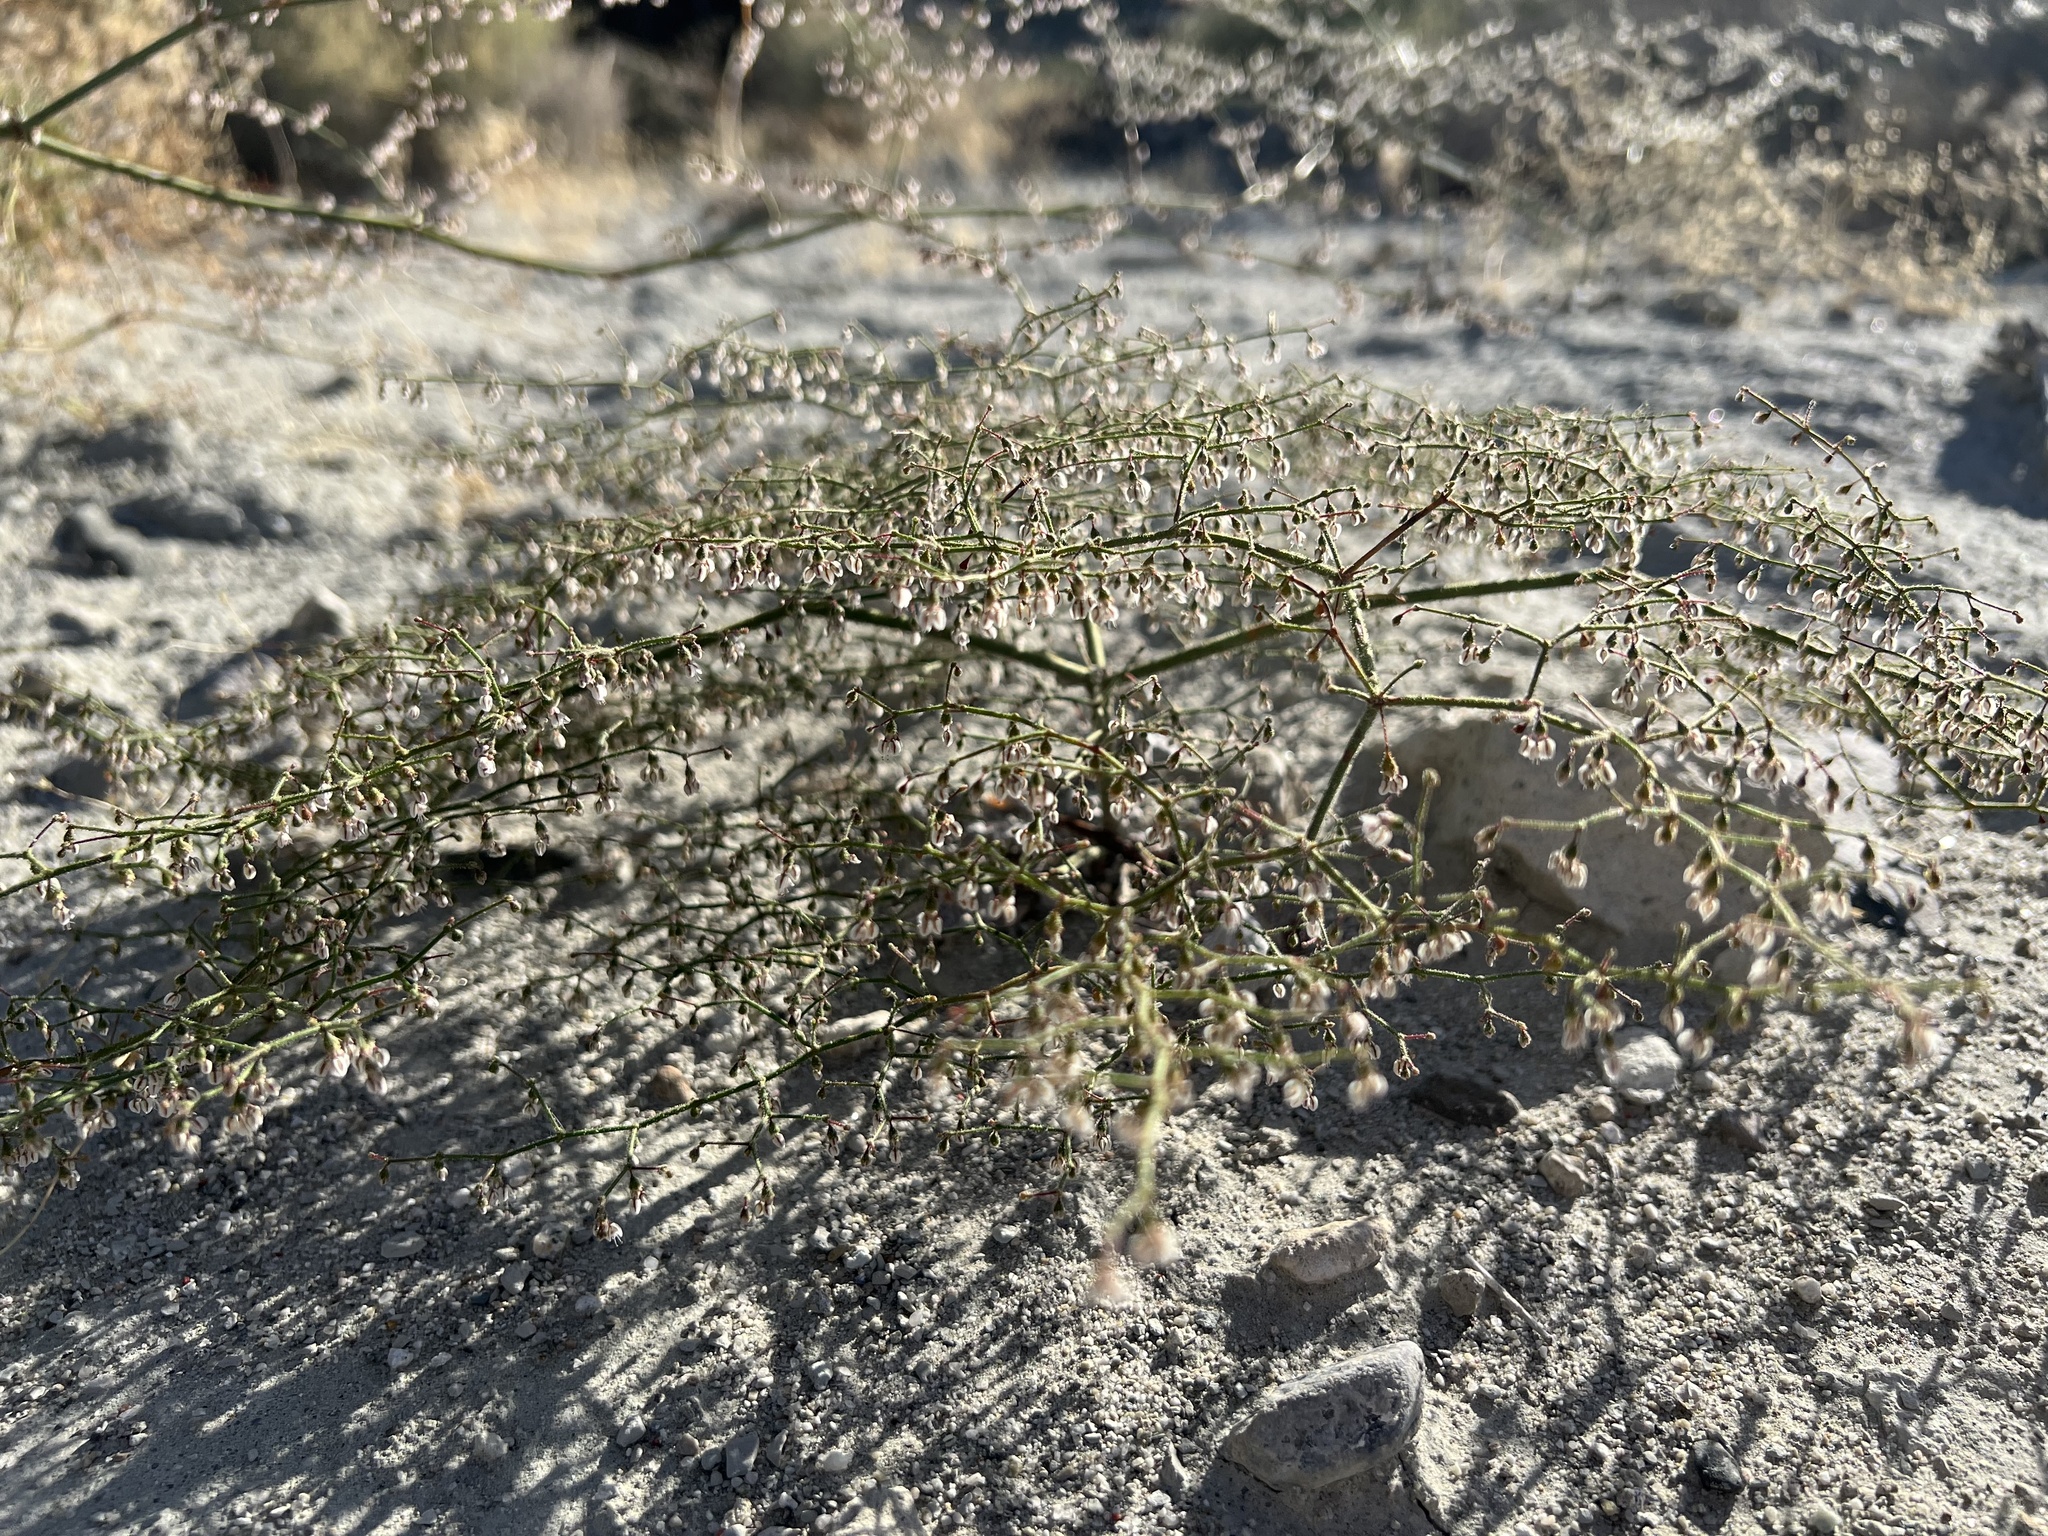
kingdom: Plantae
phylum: Tracheophyta
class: Magnoliopsida
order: Caryophyllales
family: Polygonaceae
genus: Eriogonum
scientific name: Eriogonum brachypodum
